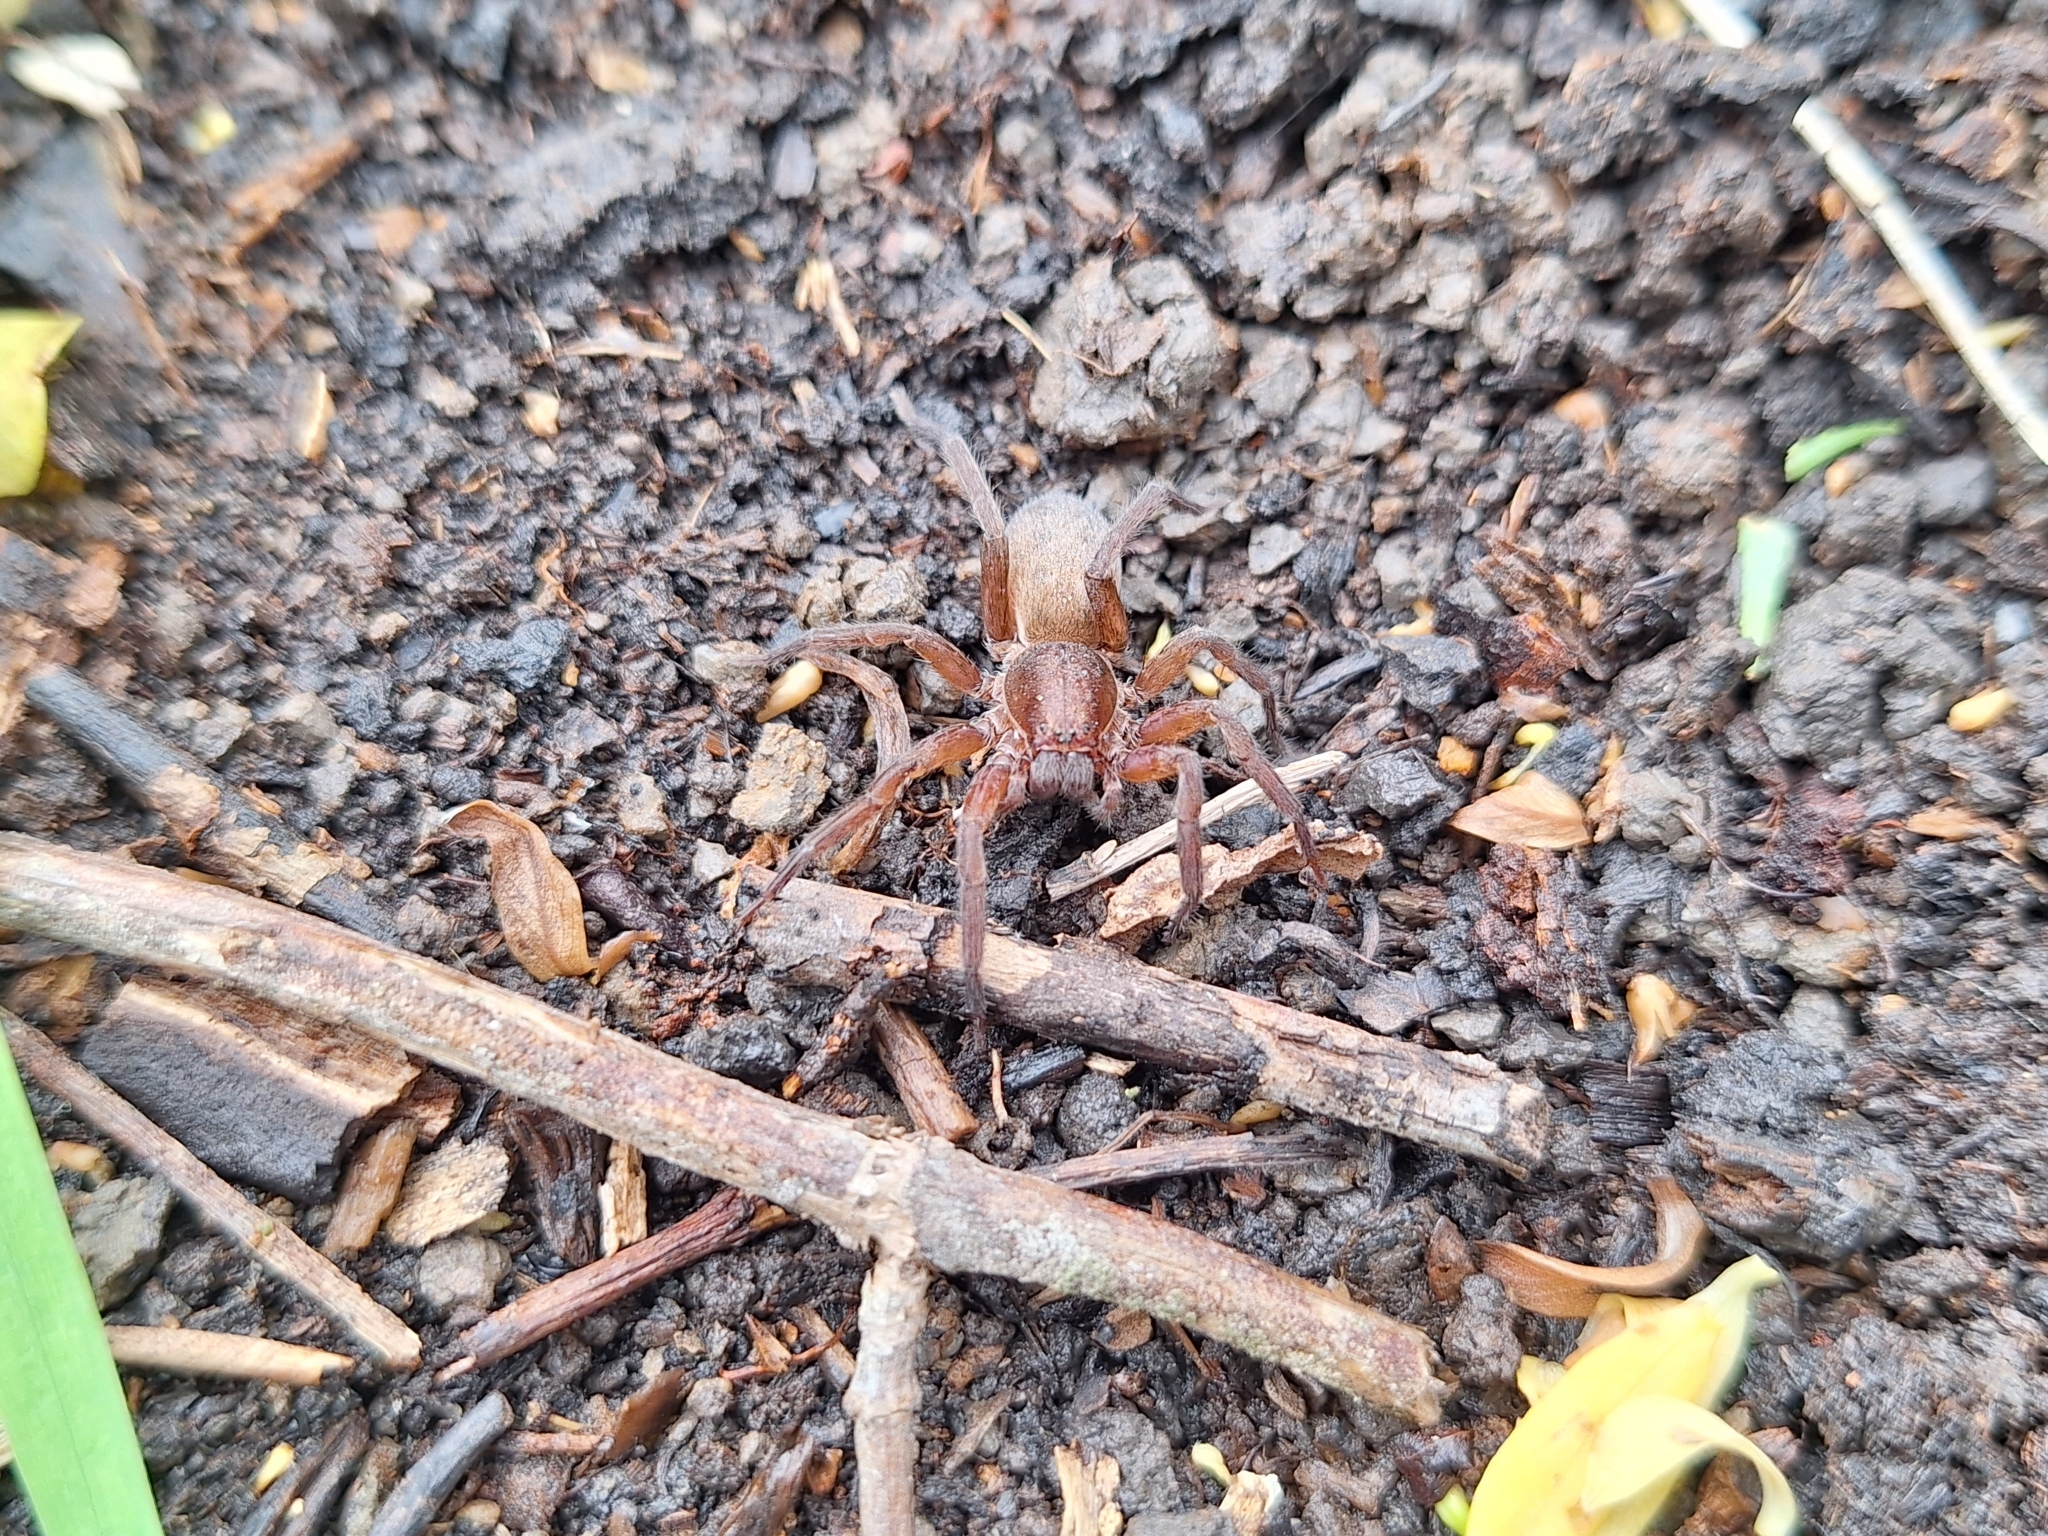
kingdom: Animalia
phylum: Arthropoda
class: Arachnida
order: Araneae
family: Ctenidae
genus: Asthenoctenus
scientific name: Asthenoctenus borellii
